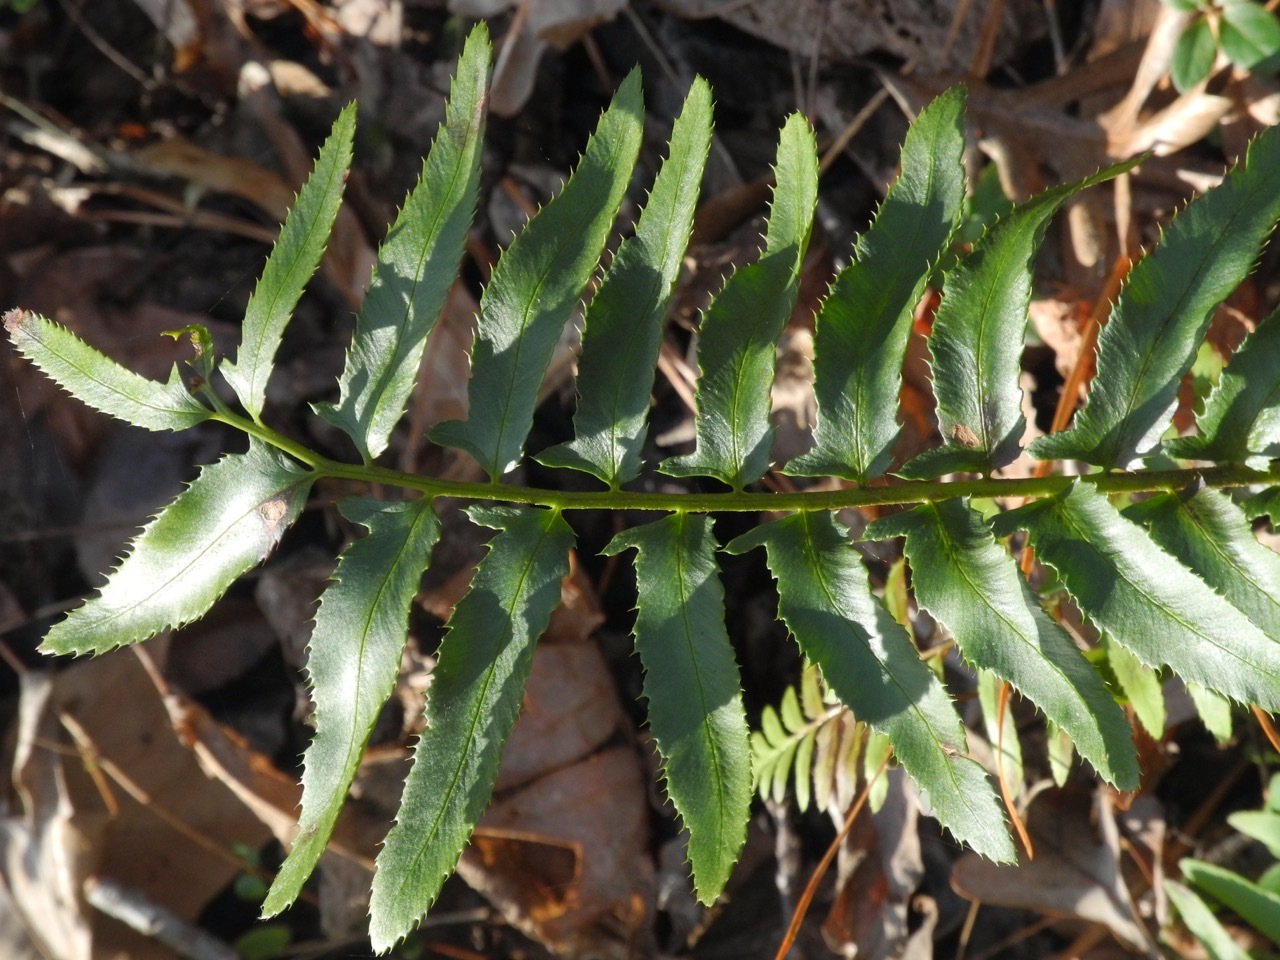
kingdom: Plantae
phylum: Tracheophyta
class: Polypodiopsida
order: Polypodiales
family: Dryopteridaceae
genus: Polystichum
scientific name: Polystichum acrostichoides
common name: Christmas fern
